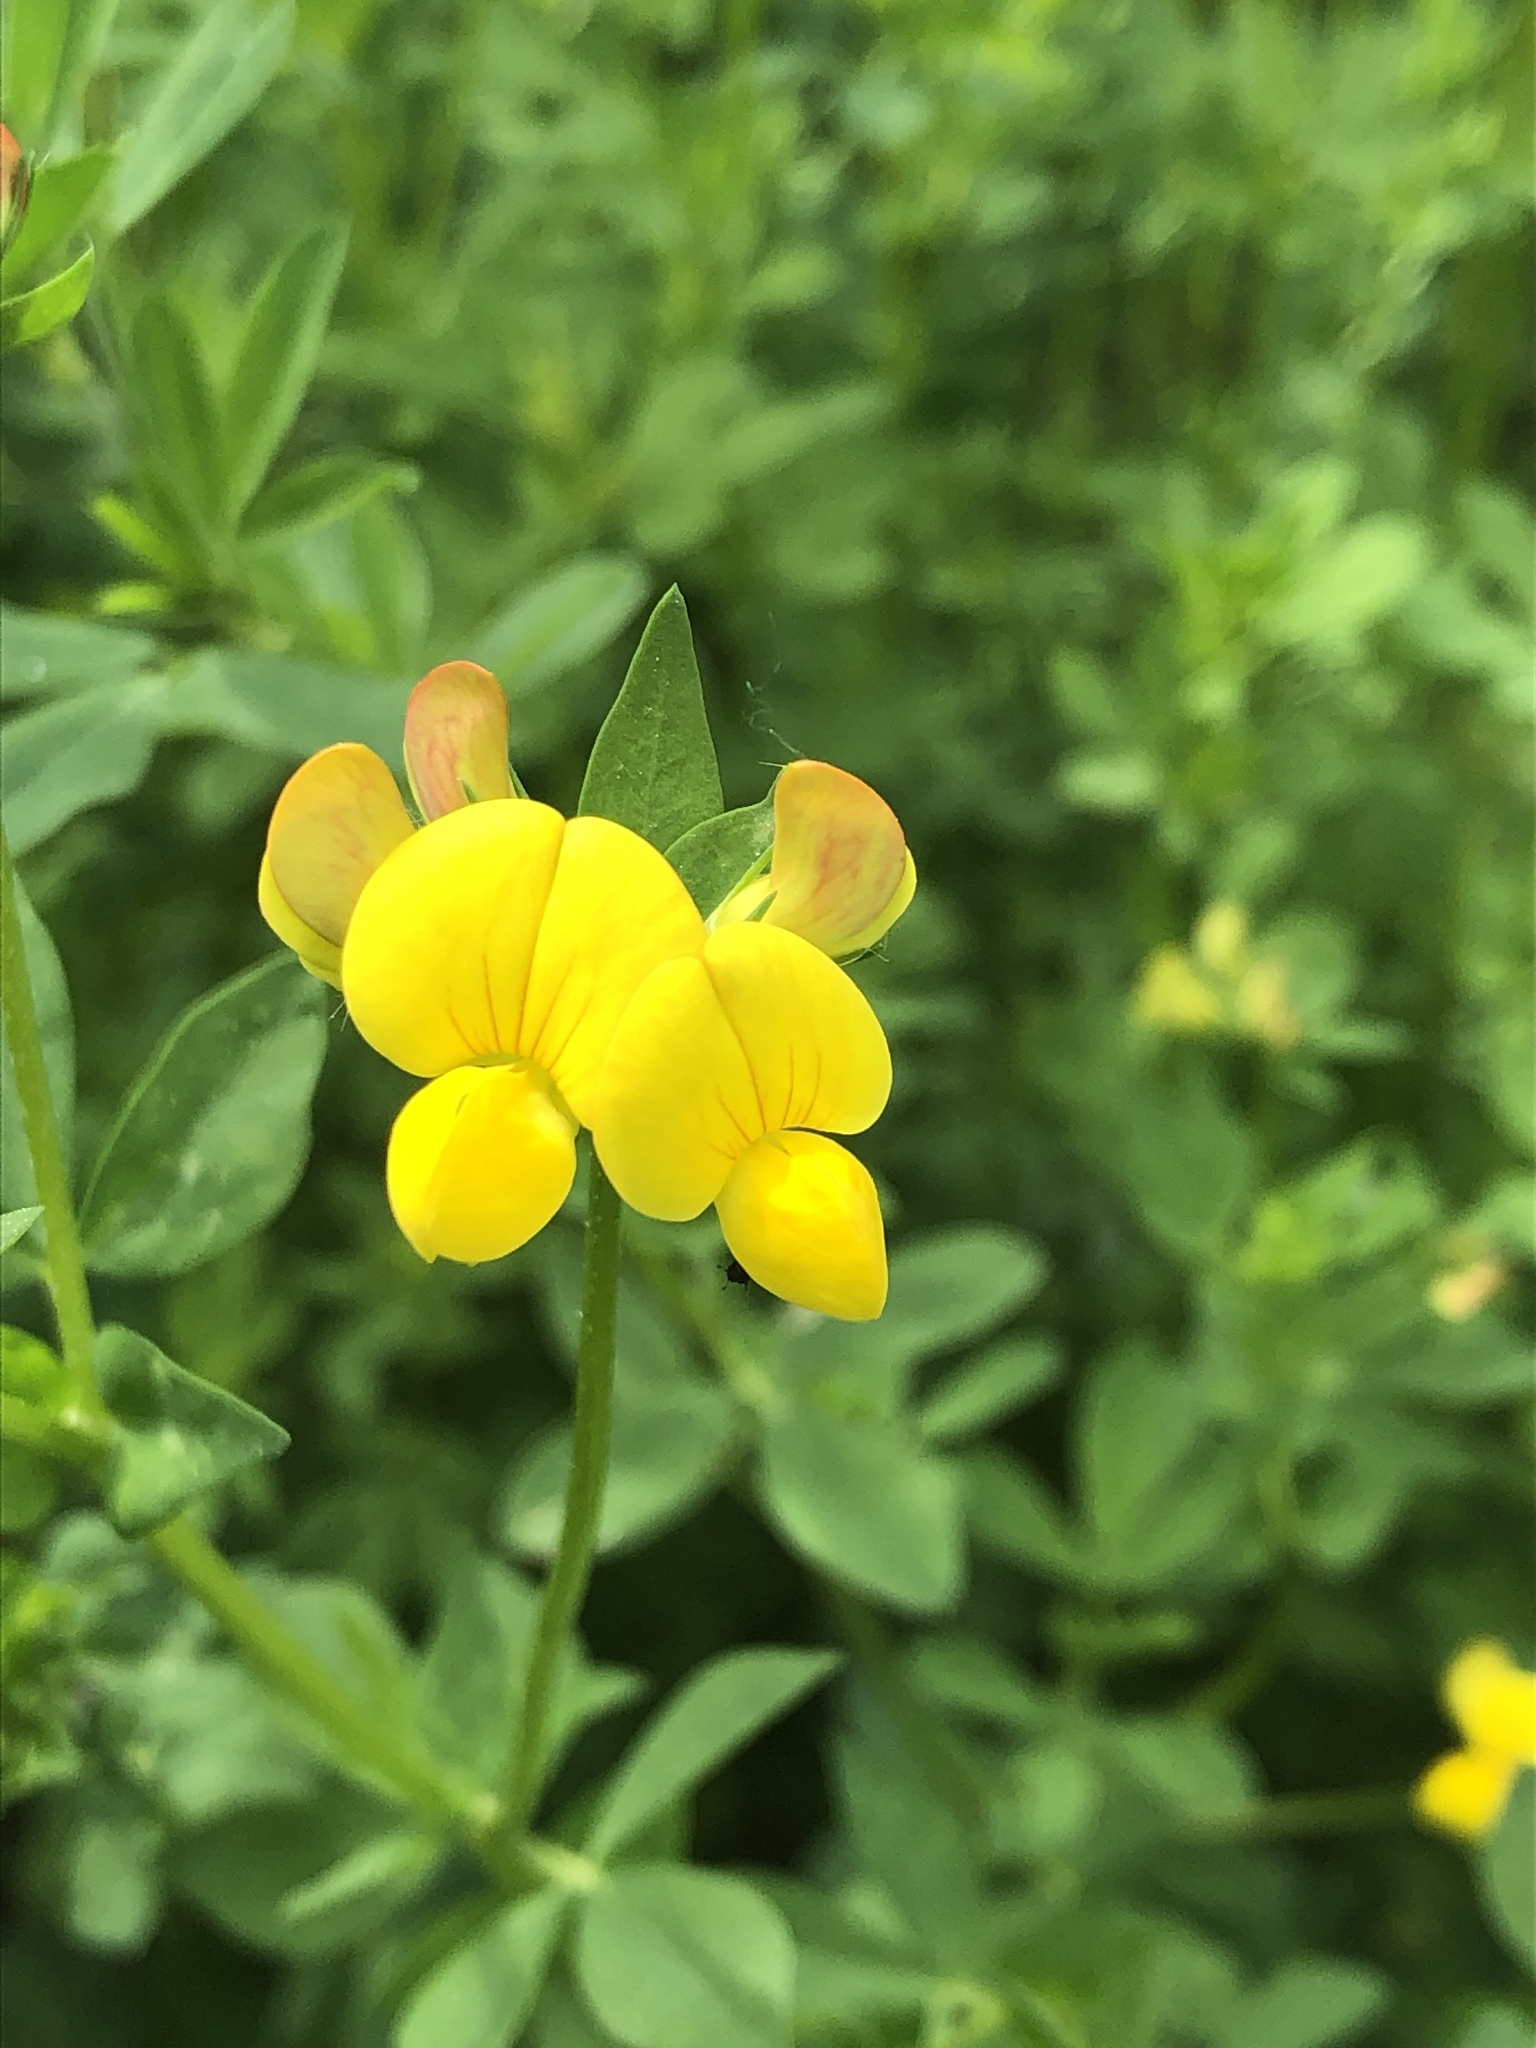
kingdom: Plantae
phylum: Tracheophyta
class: Magnoliopsida
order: Fabales
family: Fabaceae
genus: Lotus
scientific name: Lotus corniculatus
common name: Common bird's-foot-trefoil
